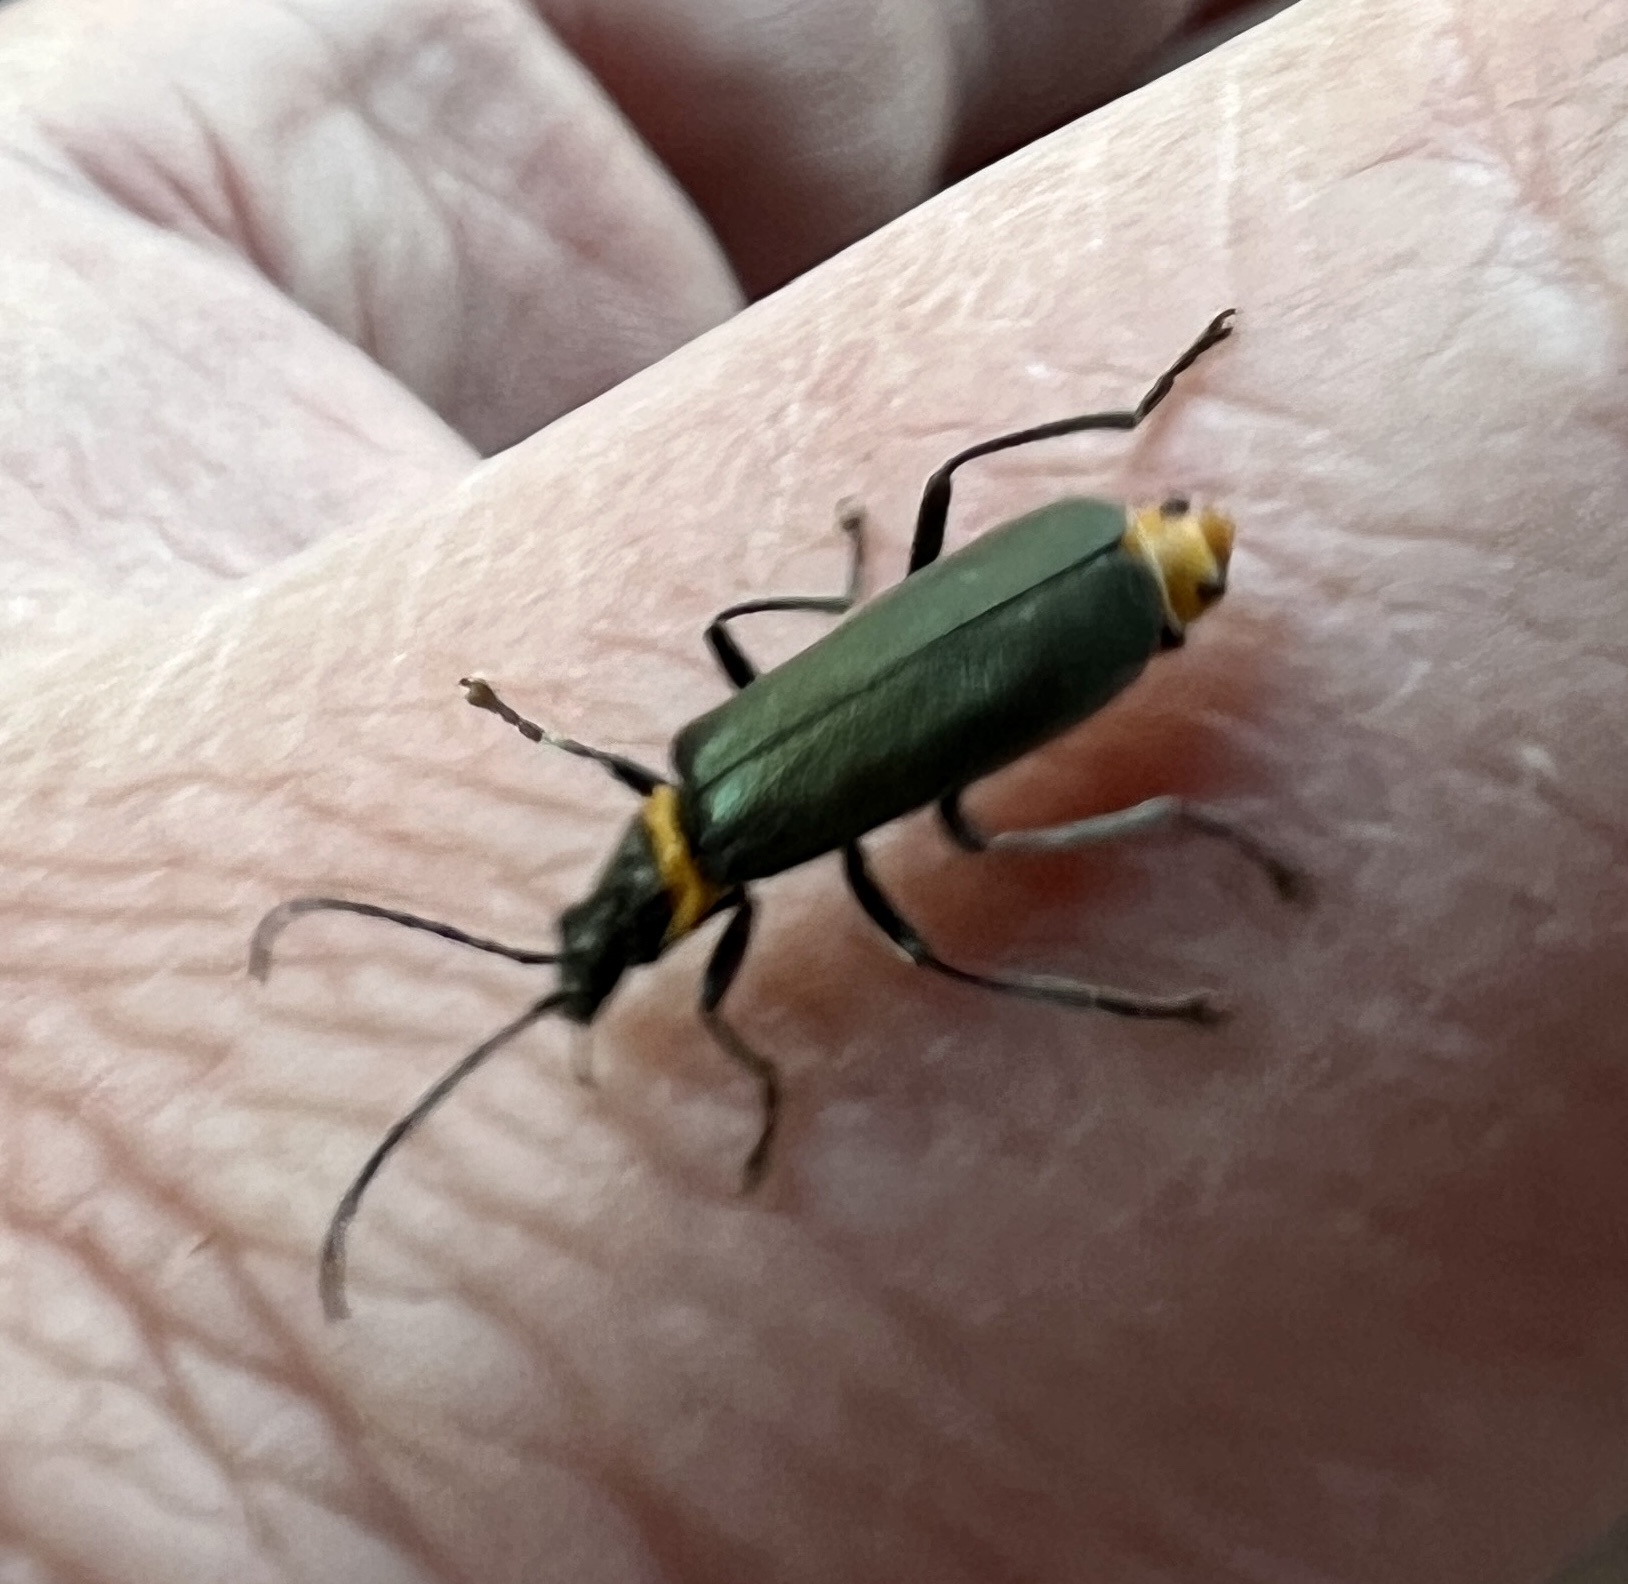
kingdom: Animalia
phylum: Arthropoda
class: Insecta
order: Coleoptera
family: Cantharidae
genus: Chauliognathus
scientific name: Chauliognathus
